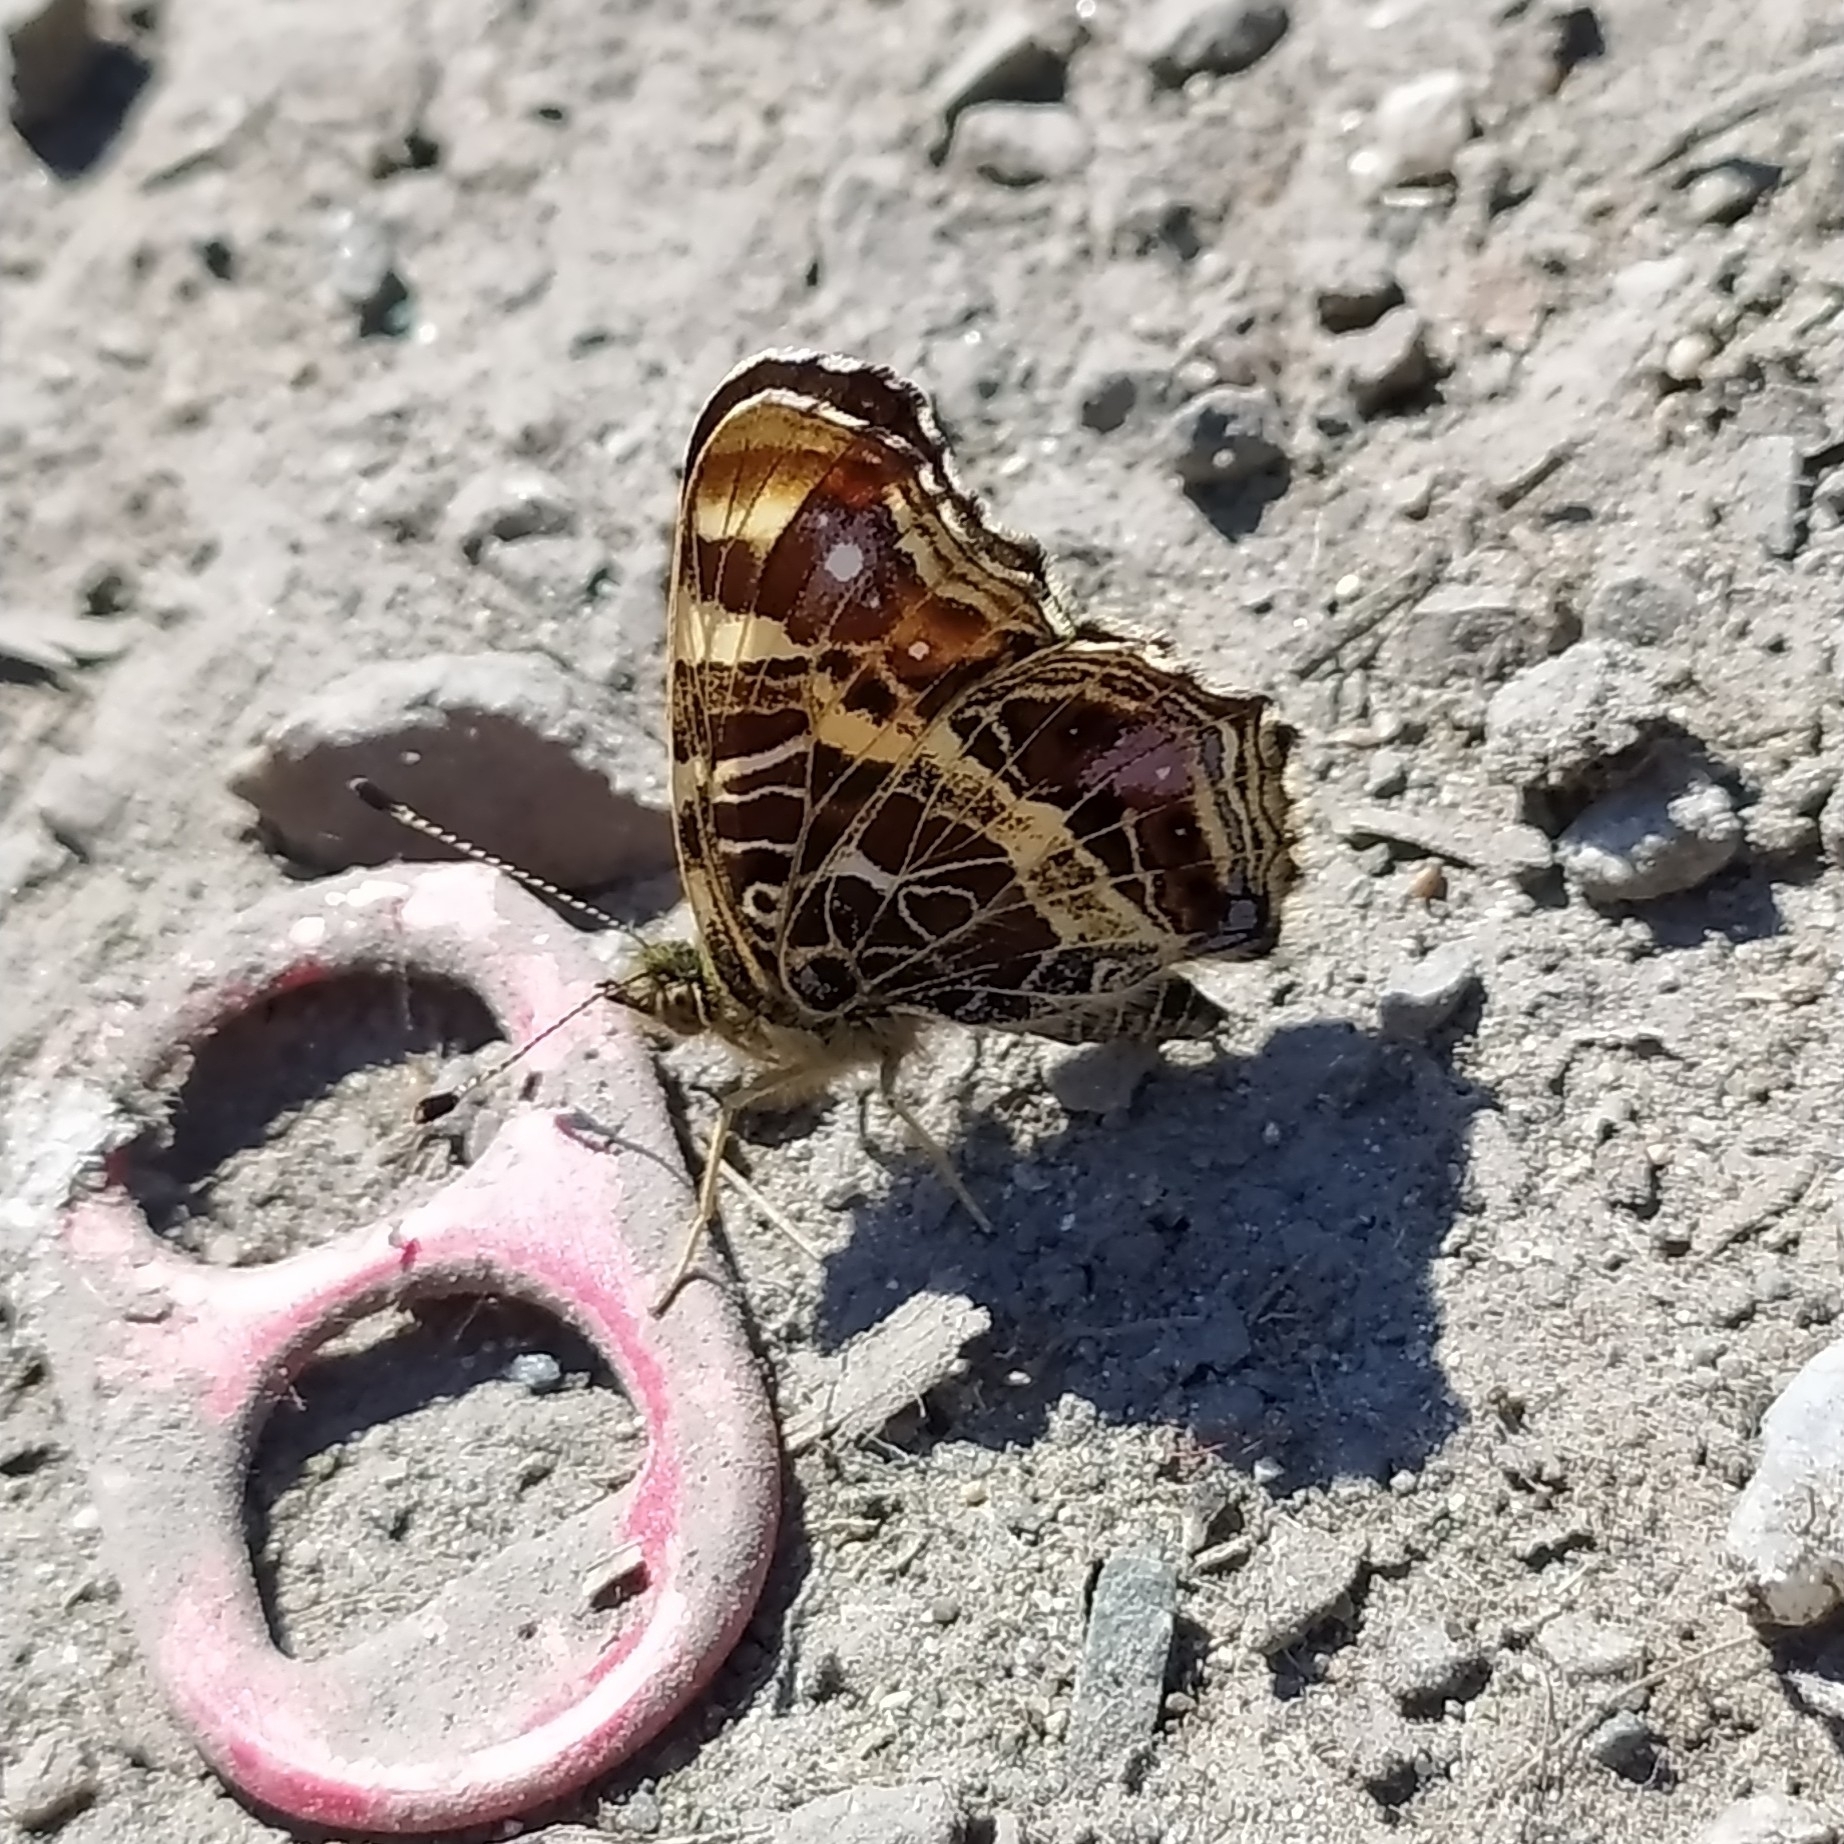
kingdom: Animalia
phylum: Arthropoda
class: Insecta
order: Lepidoptera
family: Nymphalidae
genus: Araschnia
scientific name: Araschnia levana
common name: Map butterfly
